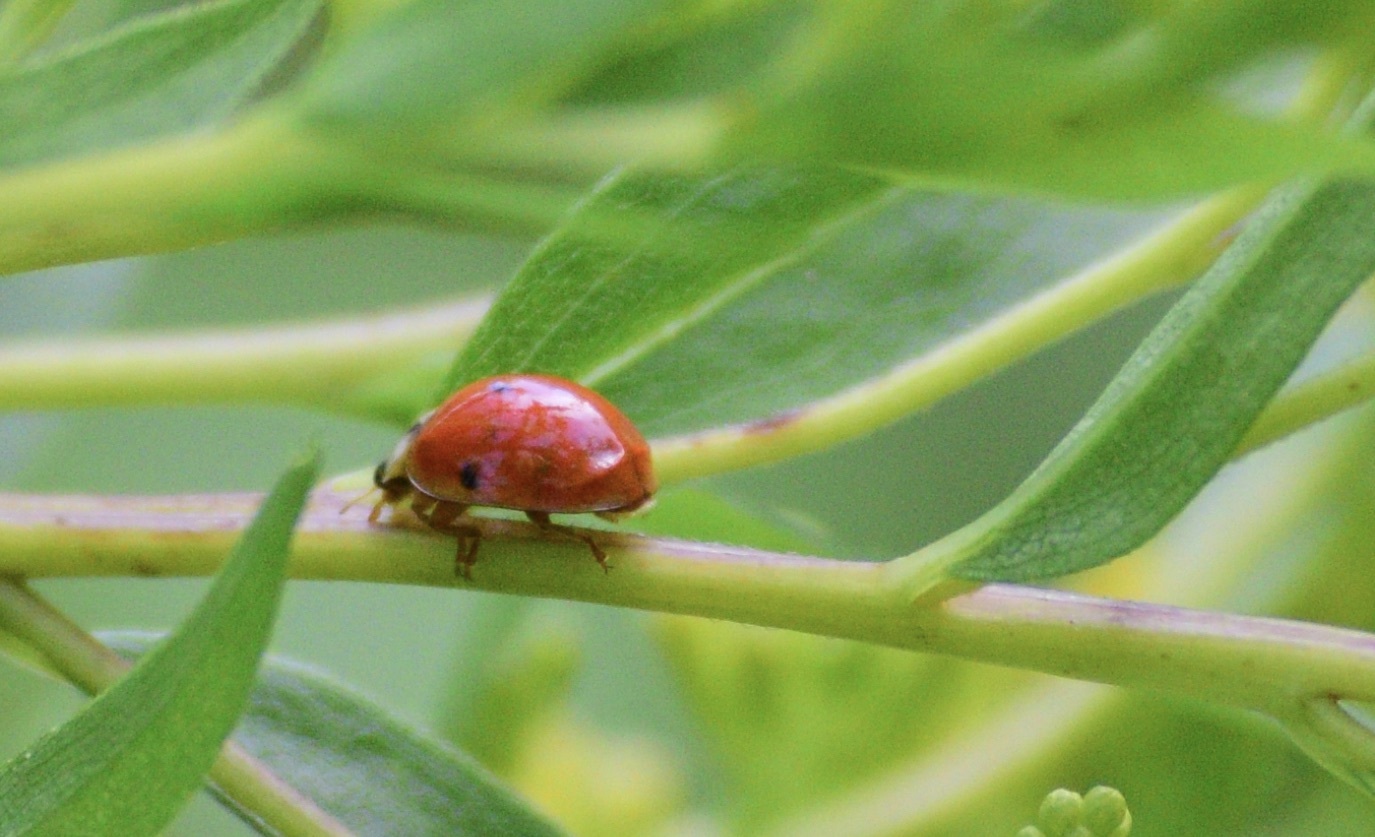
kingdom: Animalia
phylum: Arthropoda
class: Insecta
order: Coleoptera
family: Coccinellidae
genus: Harmonia
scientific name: Harmonia axyridis
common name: Harlequin ladybird
